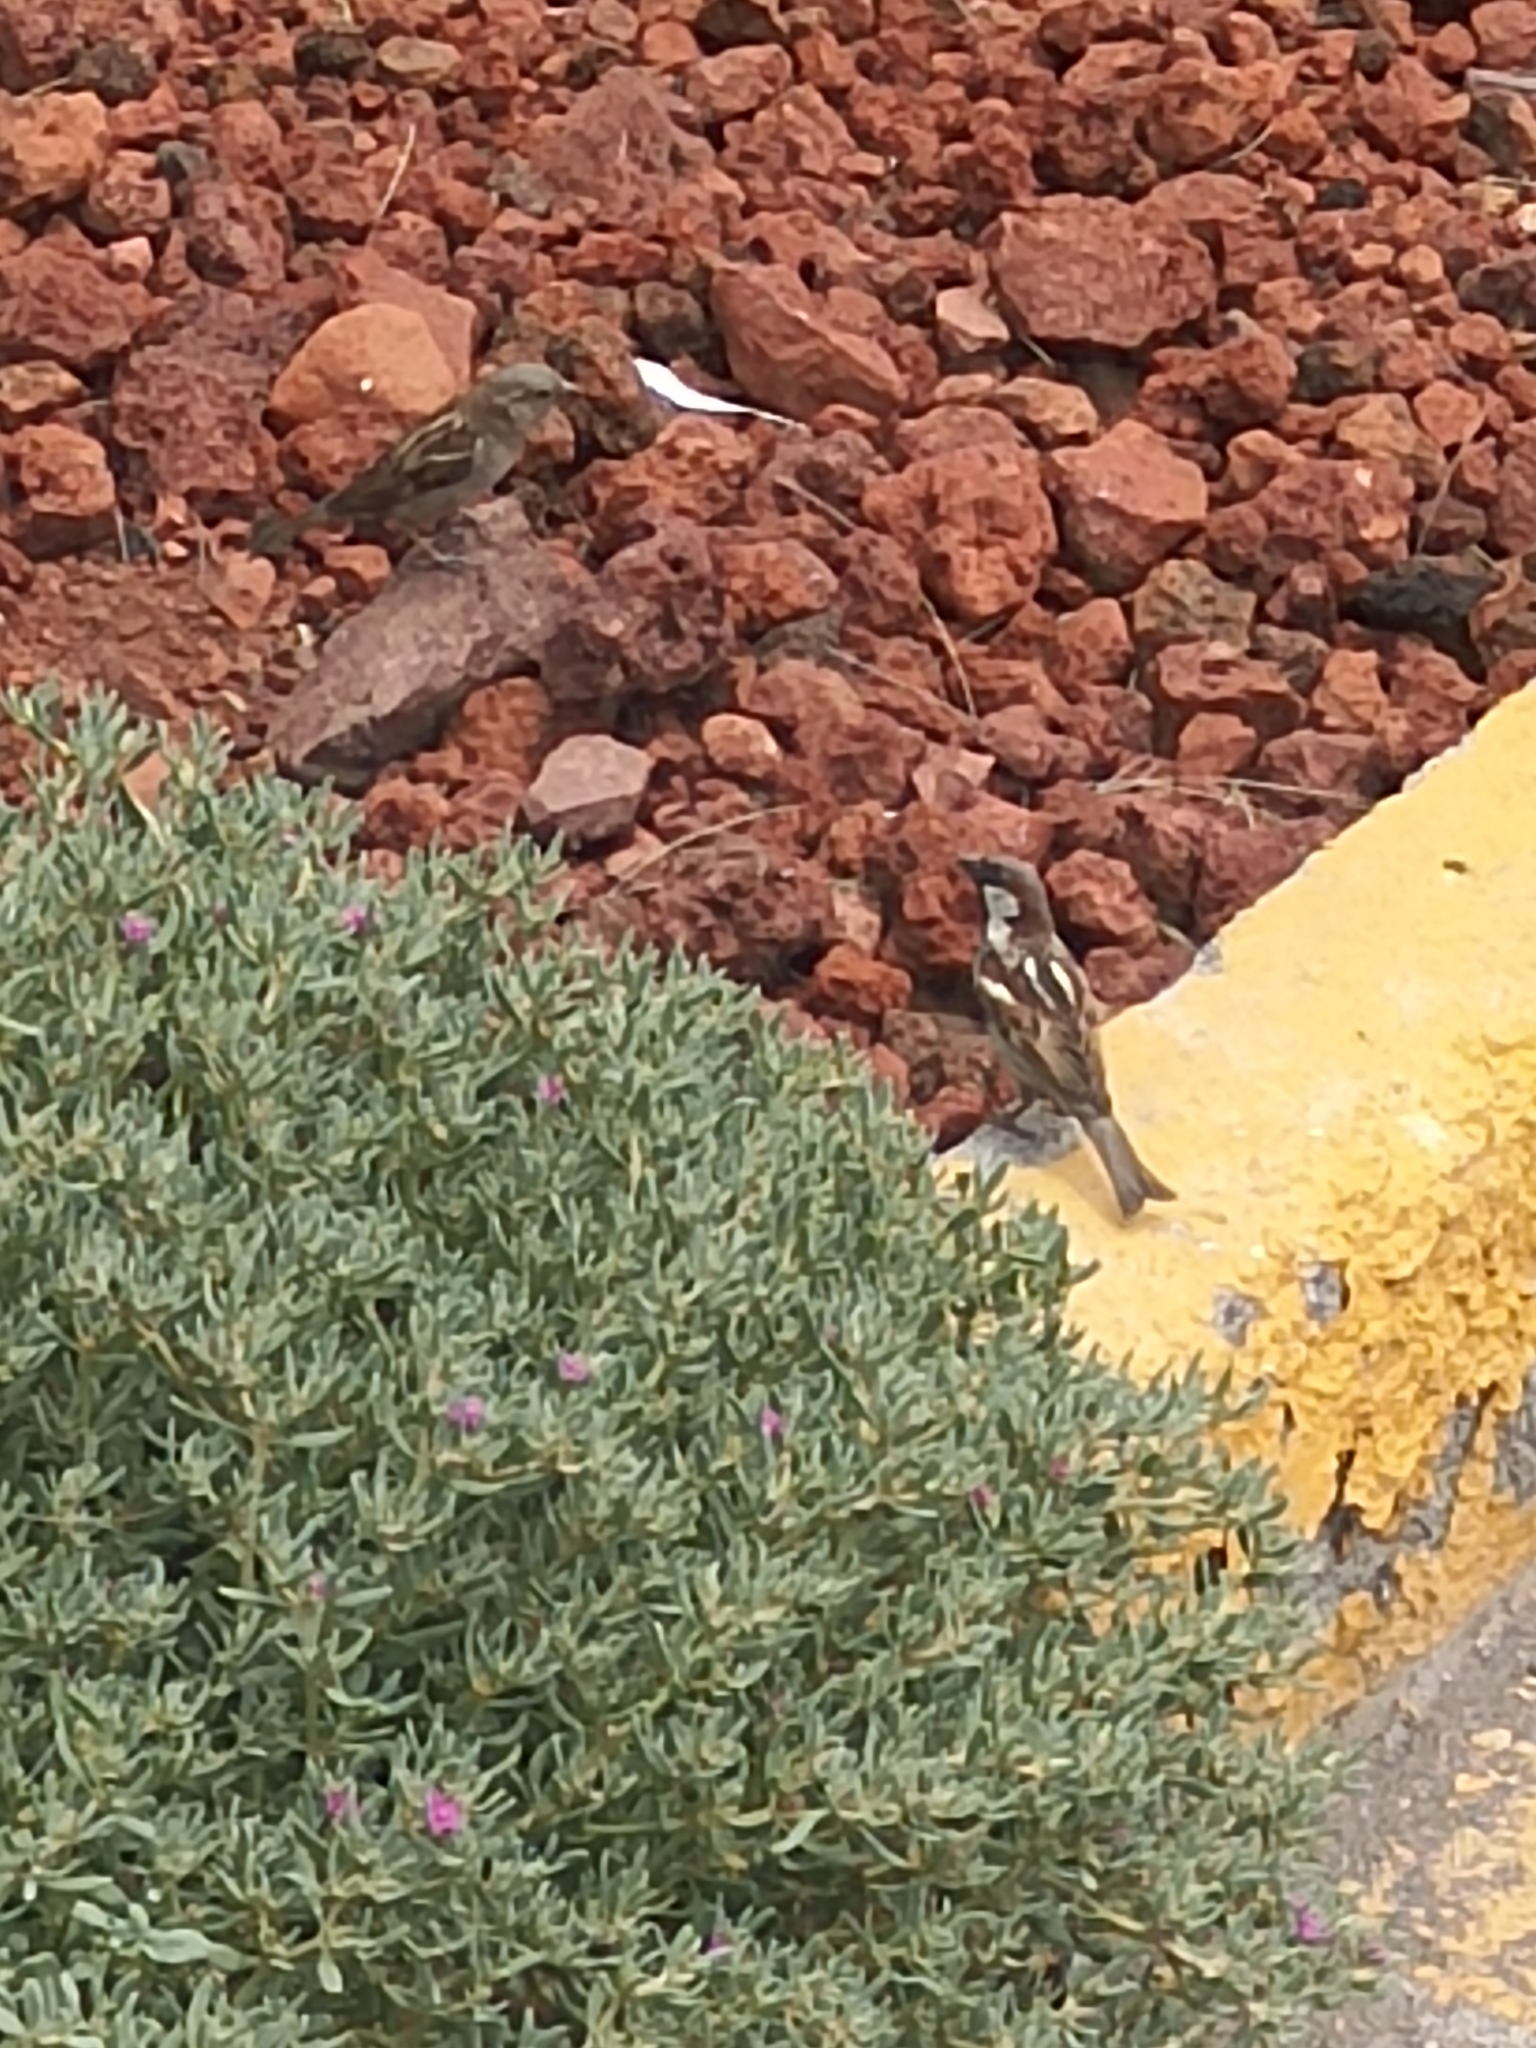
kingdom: Animalia
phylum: Chordata
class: Aves
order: Passeriformes
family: Passeridae
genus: Passer
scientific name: Passer domesticus
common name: House sparrow
